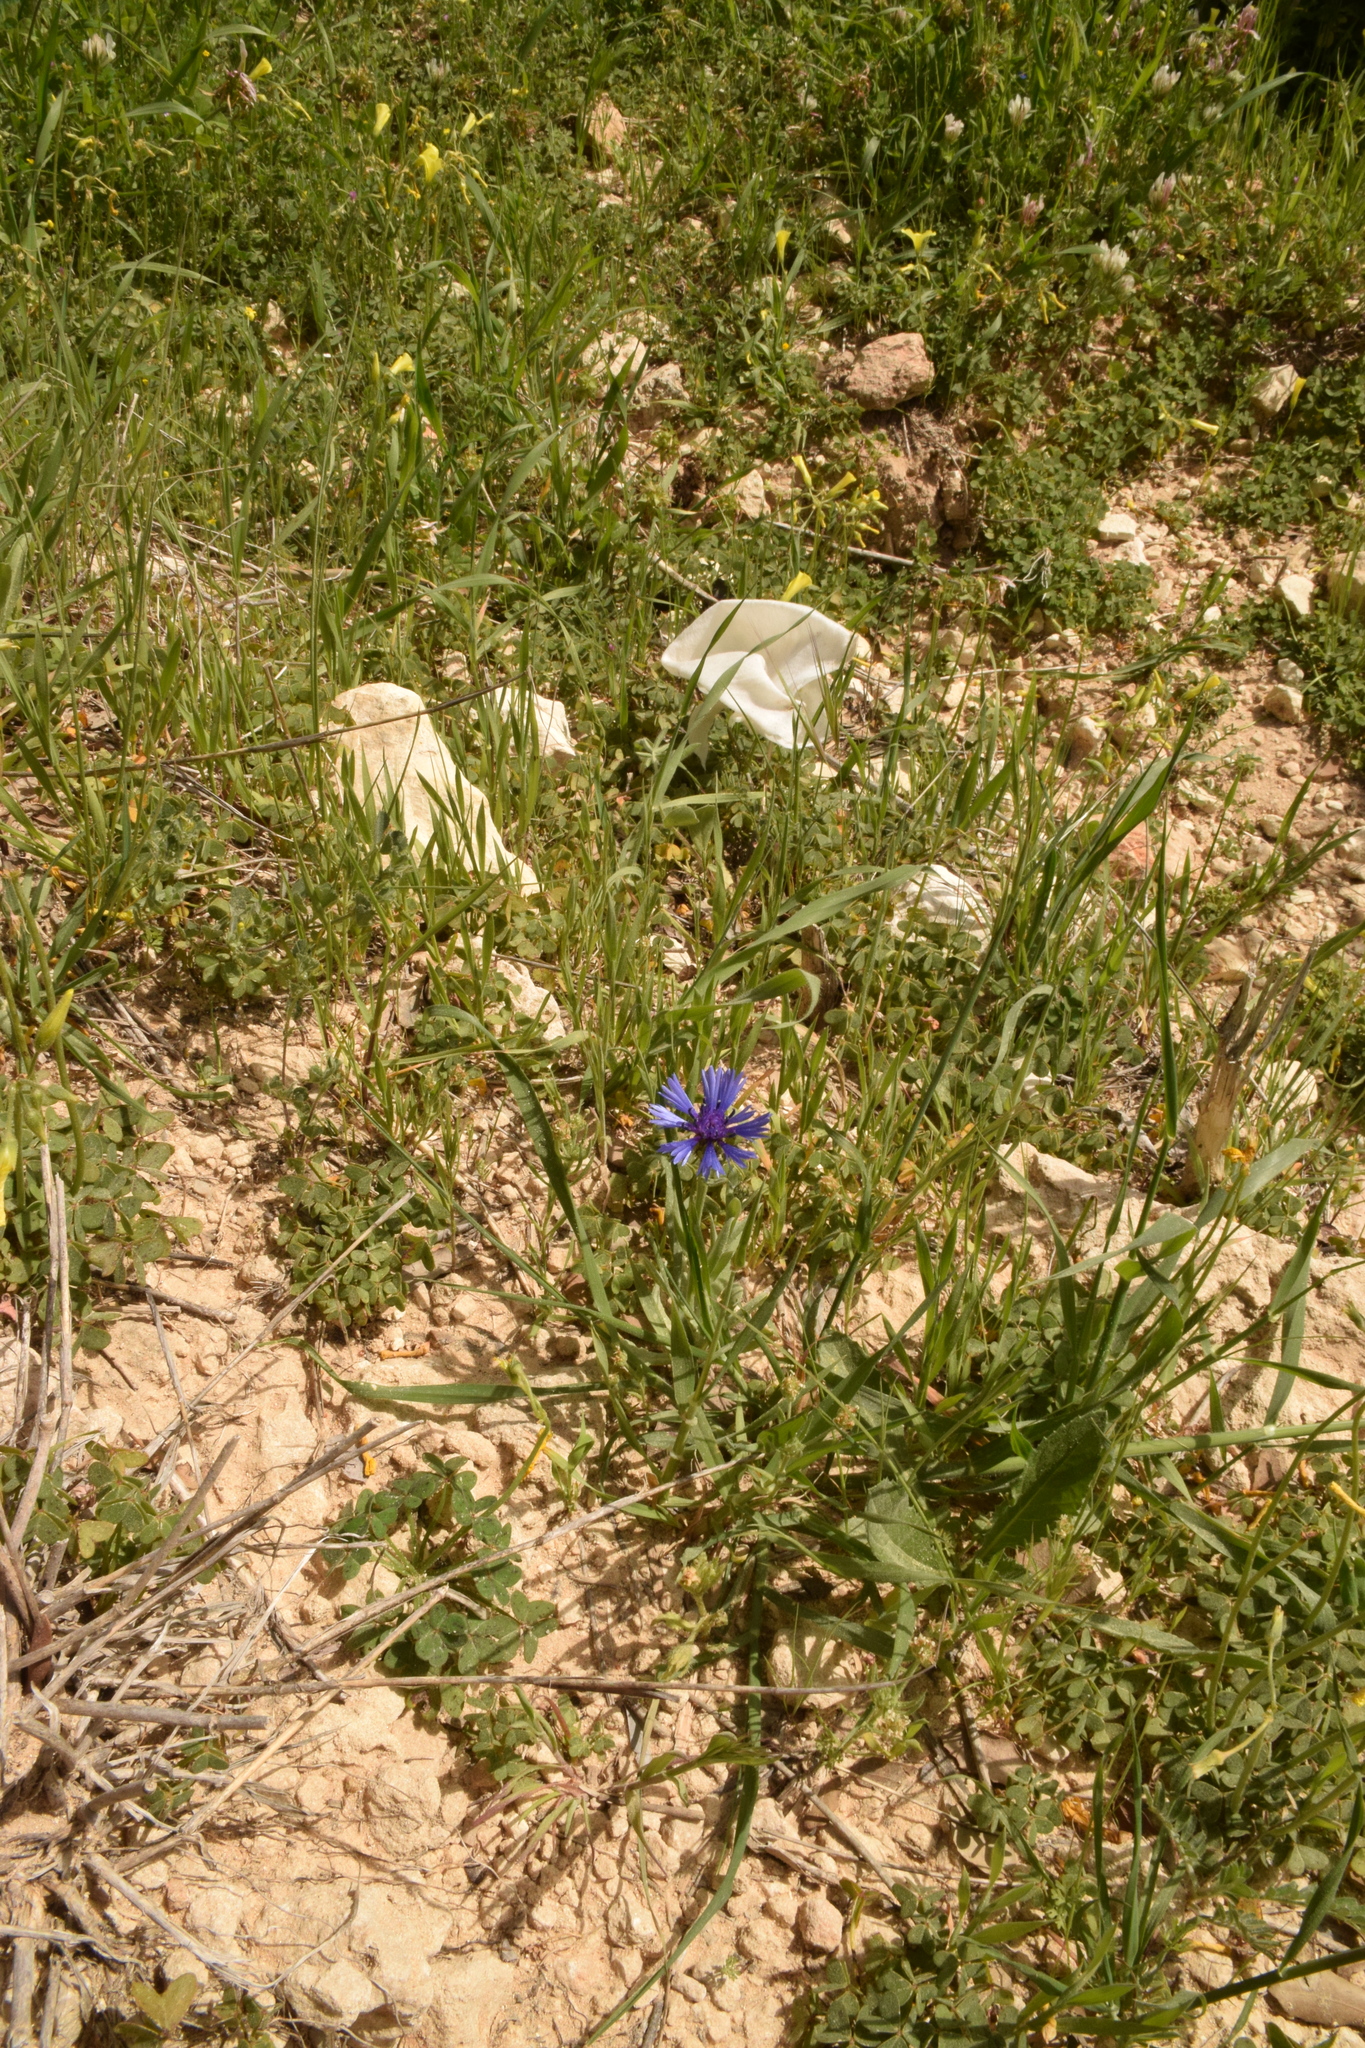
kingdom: Plantae
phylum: Tracheophyta
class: Magnoliopsida
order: Asterales
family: Asteraceae
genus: Centaurea
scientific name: Centaurea cyanoides
